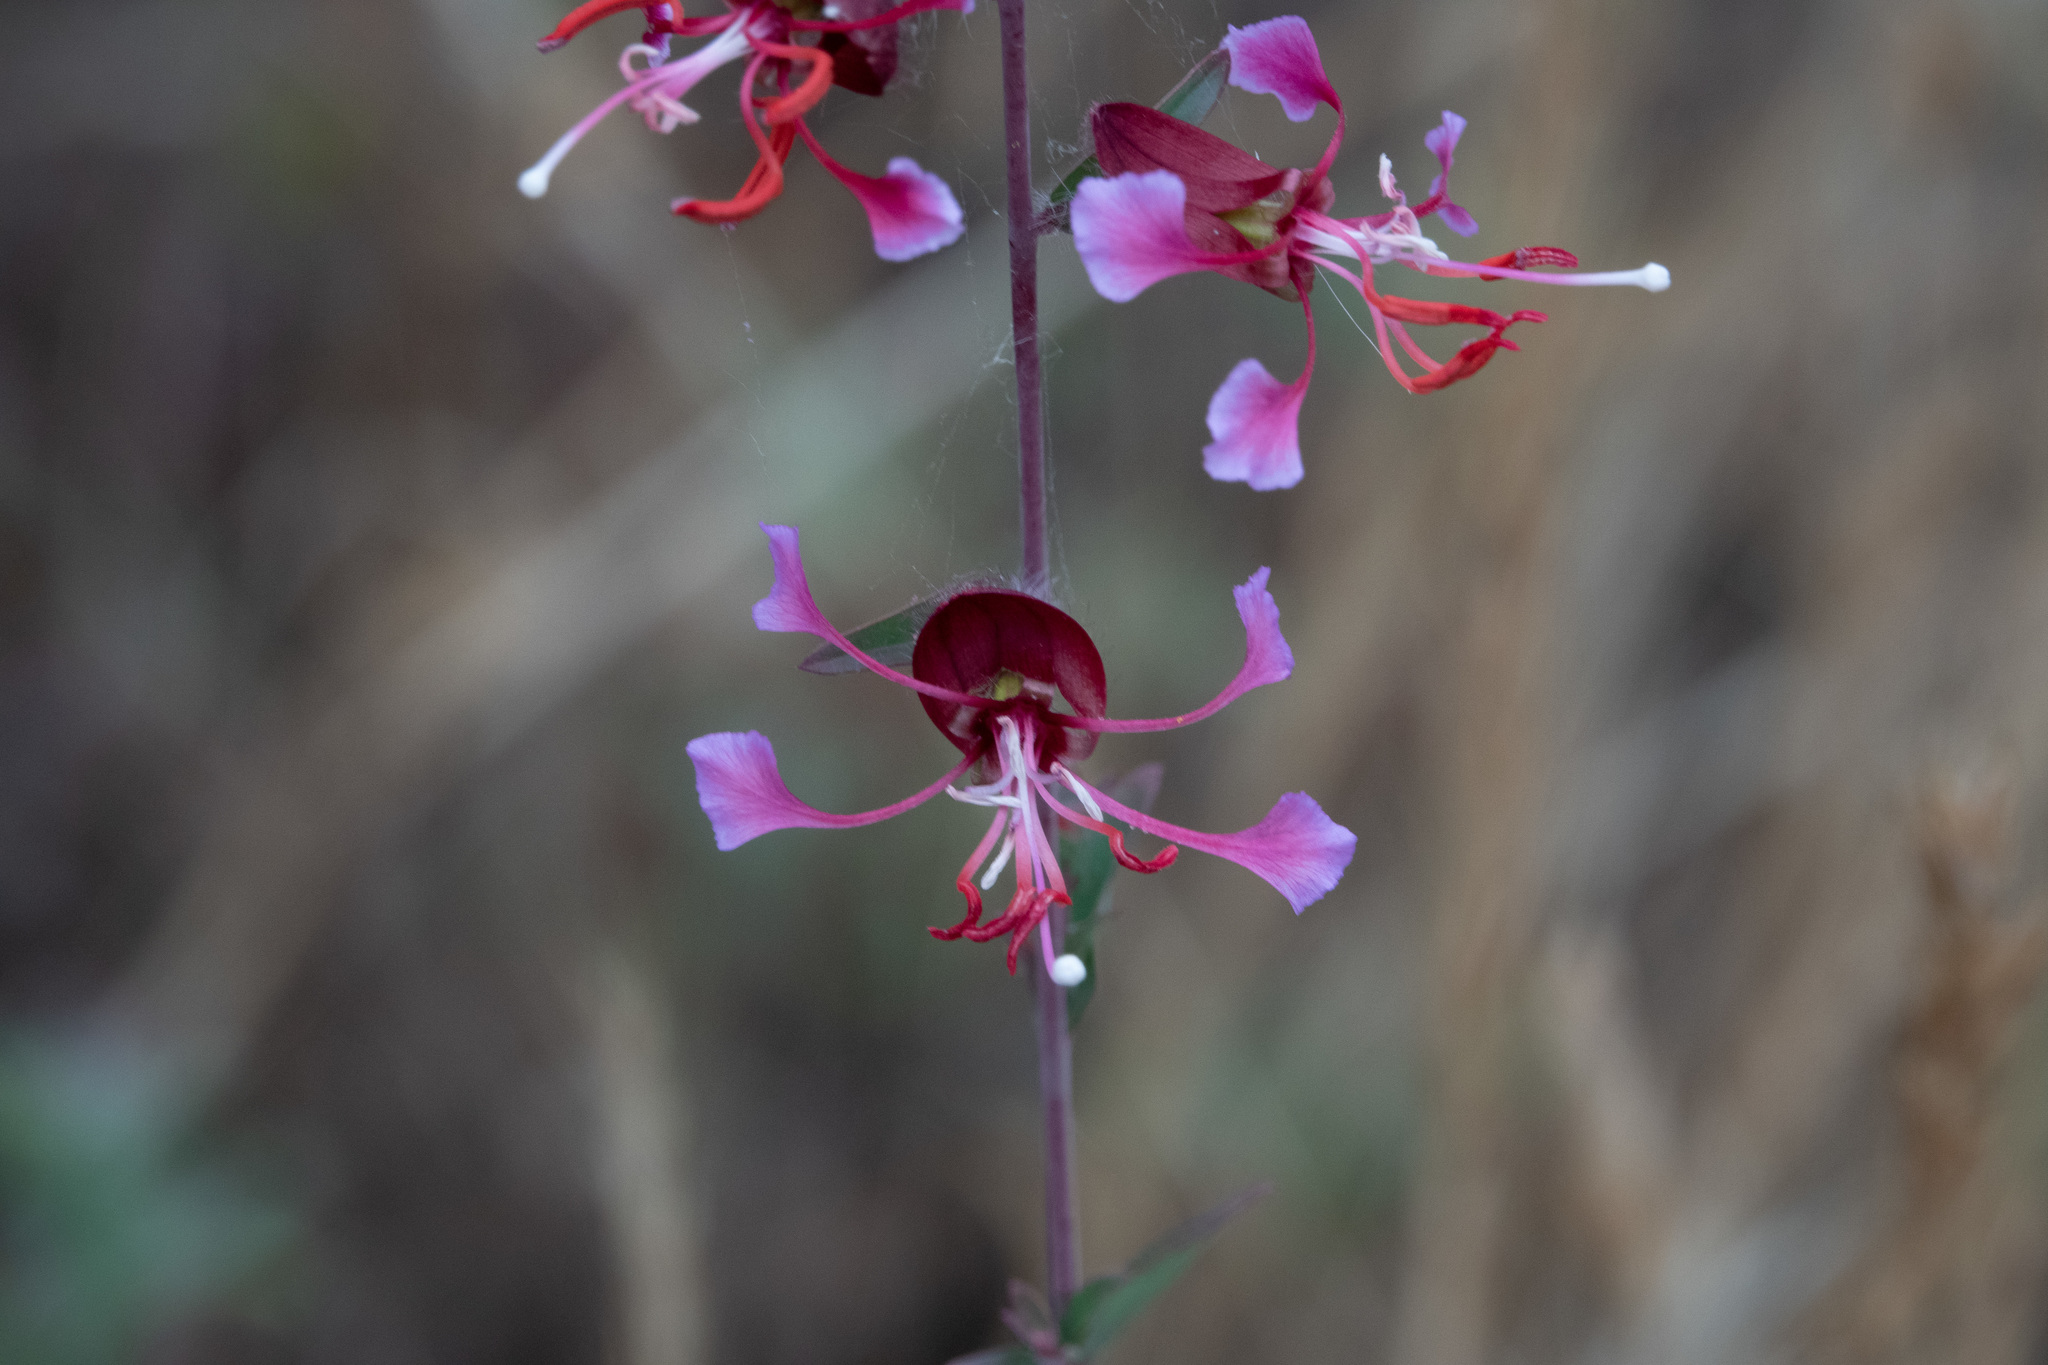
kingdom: Plantae
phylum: Tracheophyta
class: Magnoliopsida
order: Myrtales
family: Onagraceae
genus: Clarkia
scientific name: Clarkia unguiculata
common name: Clarkia
